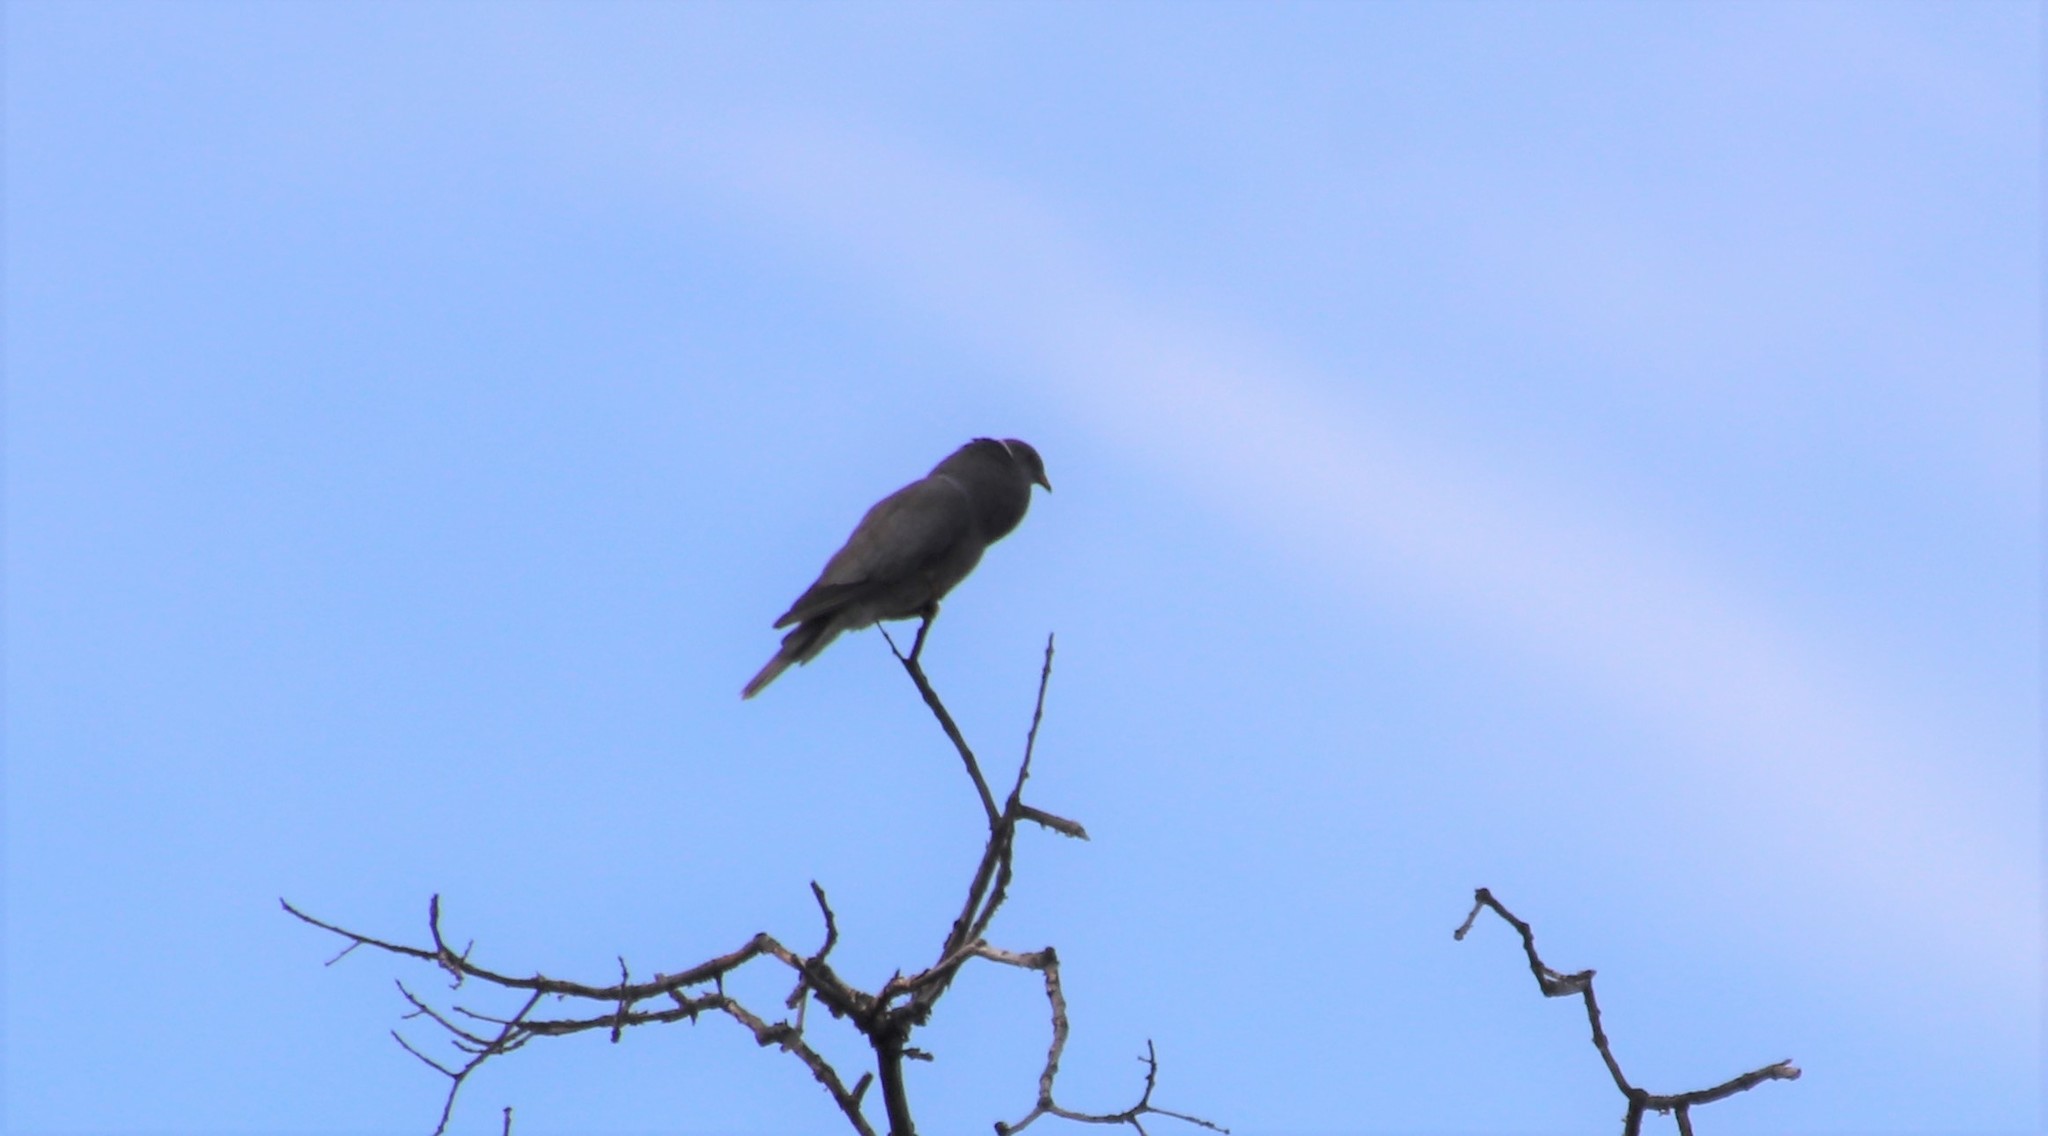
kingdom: Animalia
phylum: Chordata
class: Aves
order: Columbiformes
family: Columbidae
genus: Patagioenas
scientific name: Patagioenas fasciata
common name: Band-tailed pigeon
